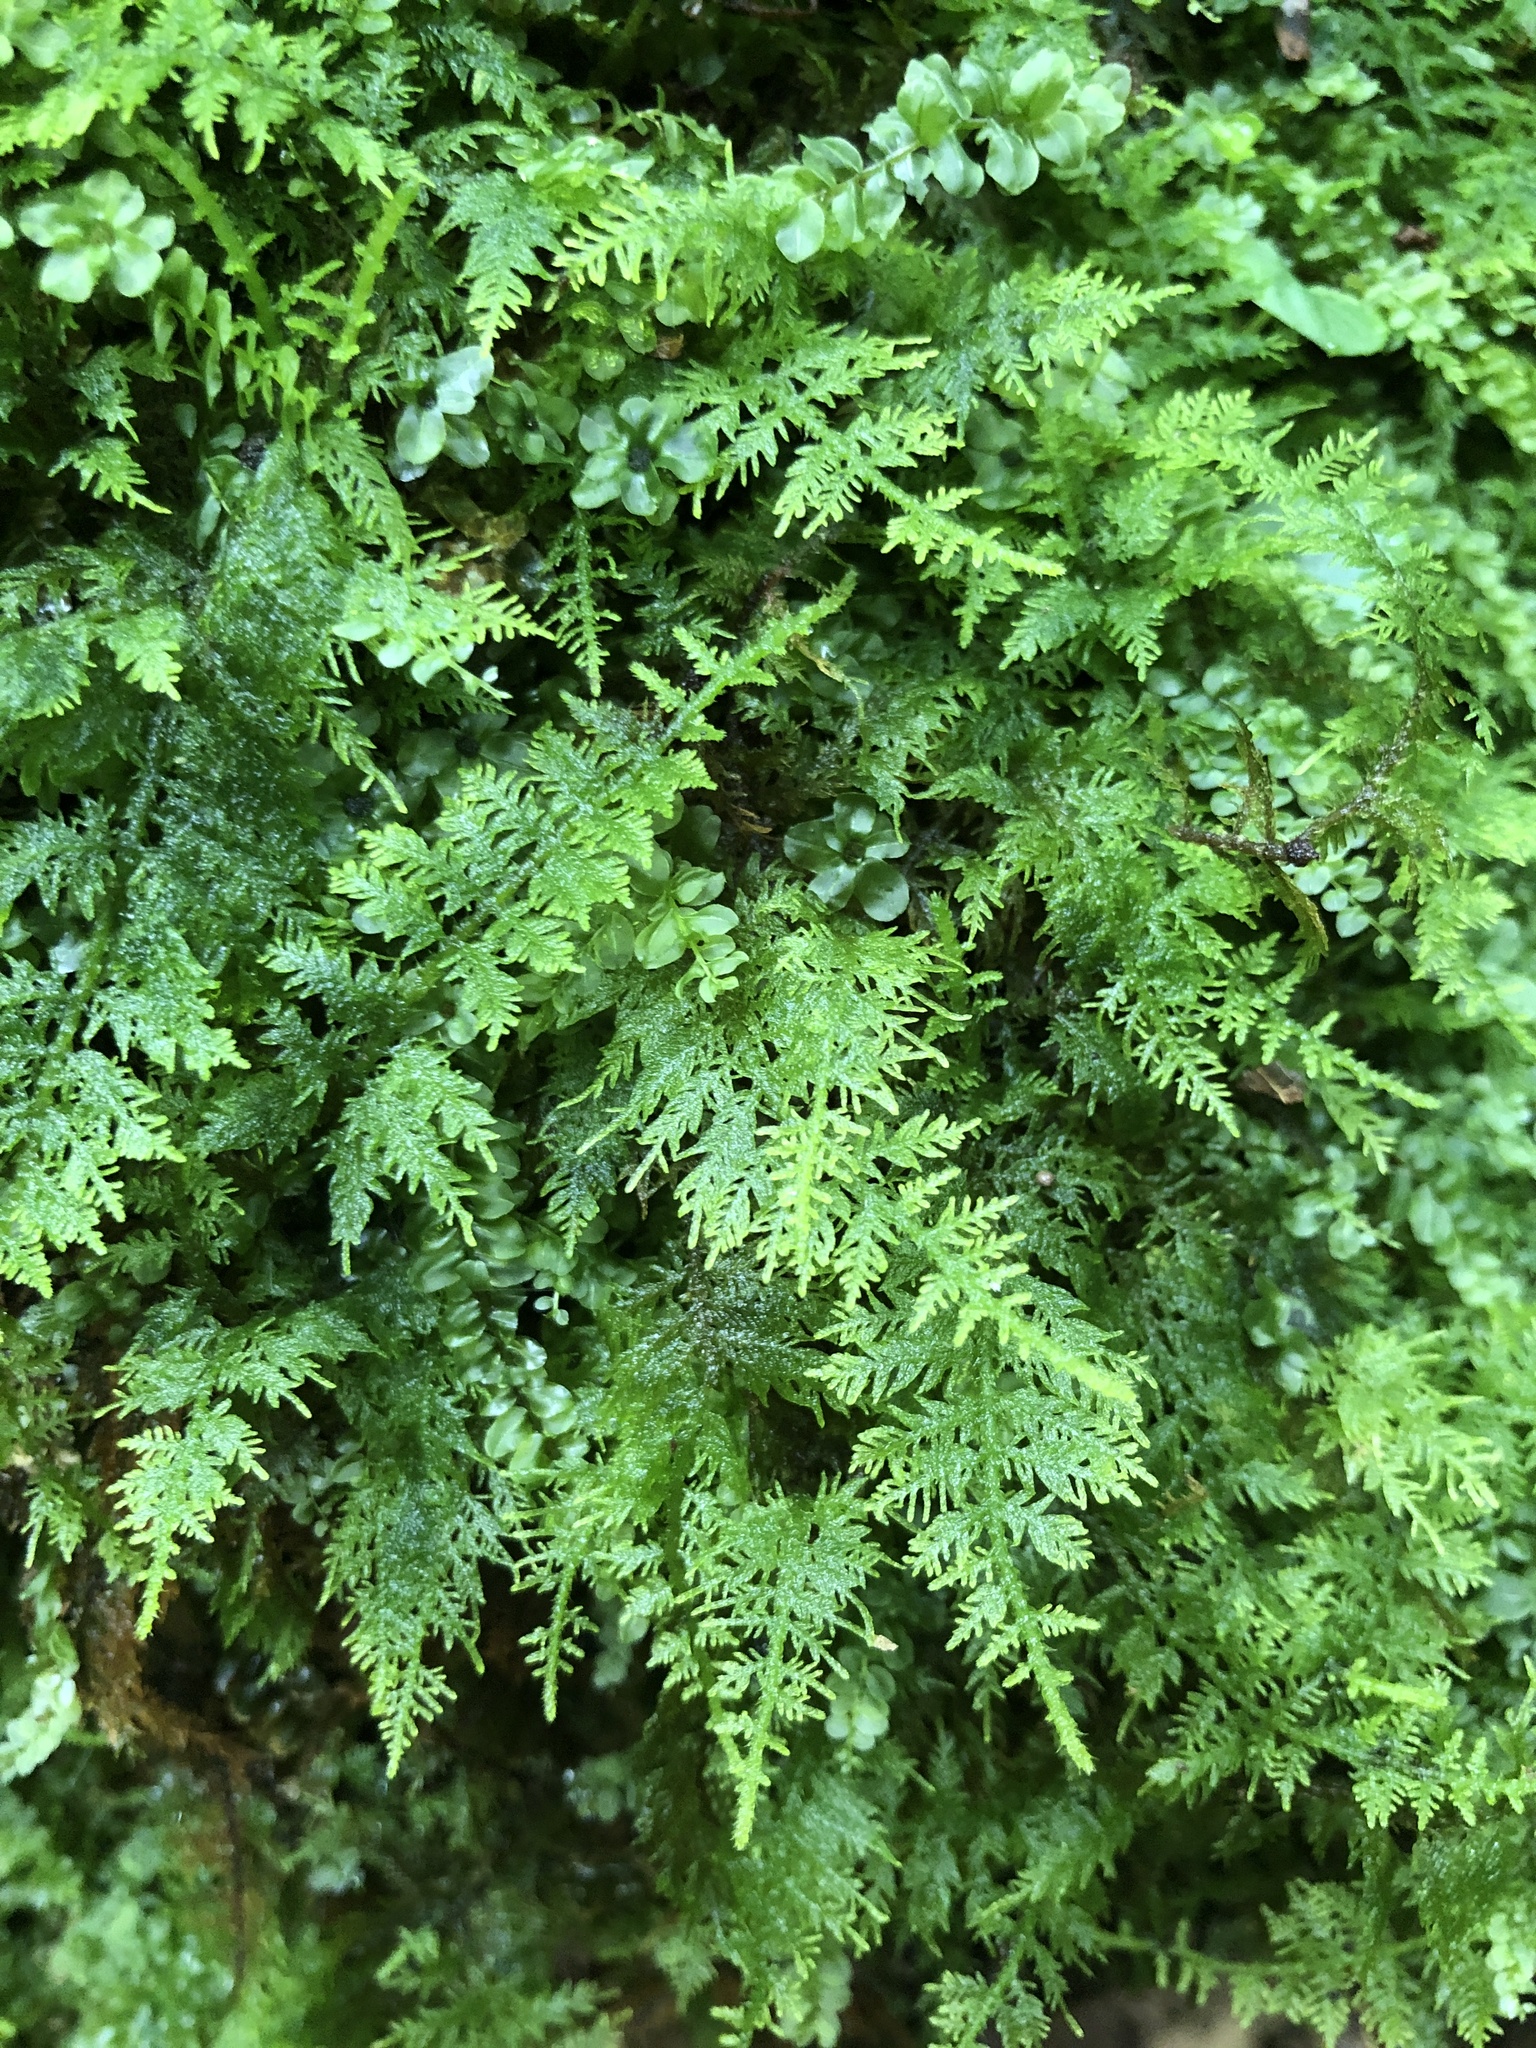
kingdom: Plantae
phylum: Bryophyta
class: Bryopsida
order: Hypnales
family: Thuidiaceae
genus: Thuidium
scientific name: Thuidium delicatulum
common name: Delicate fern moss
